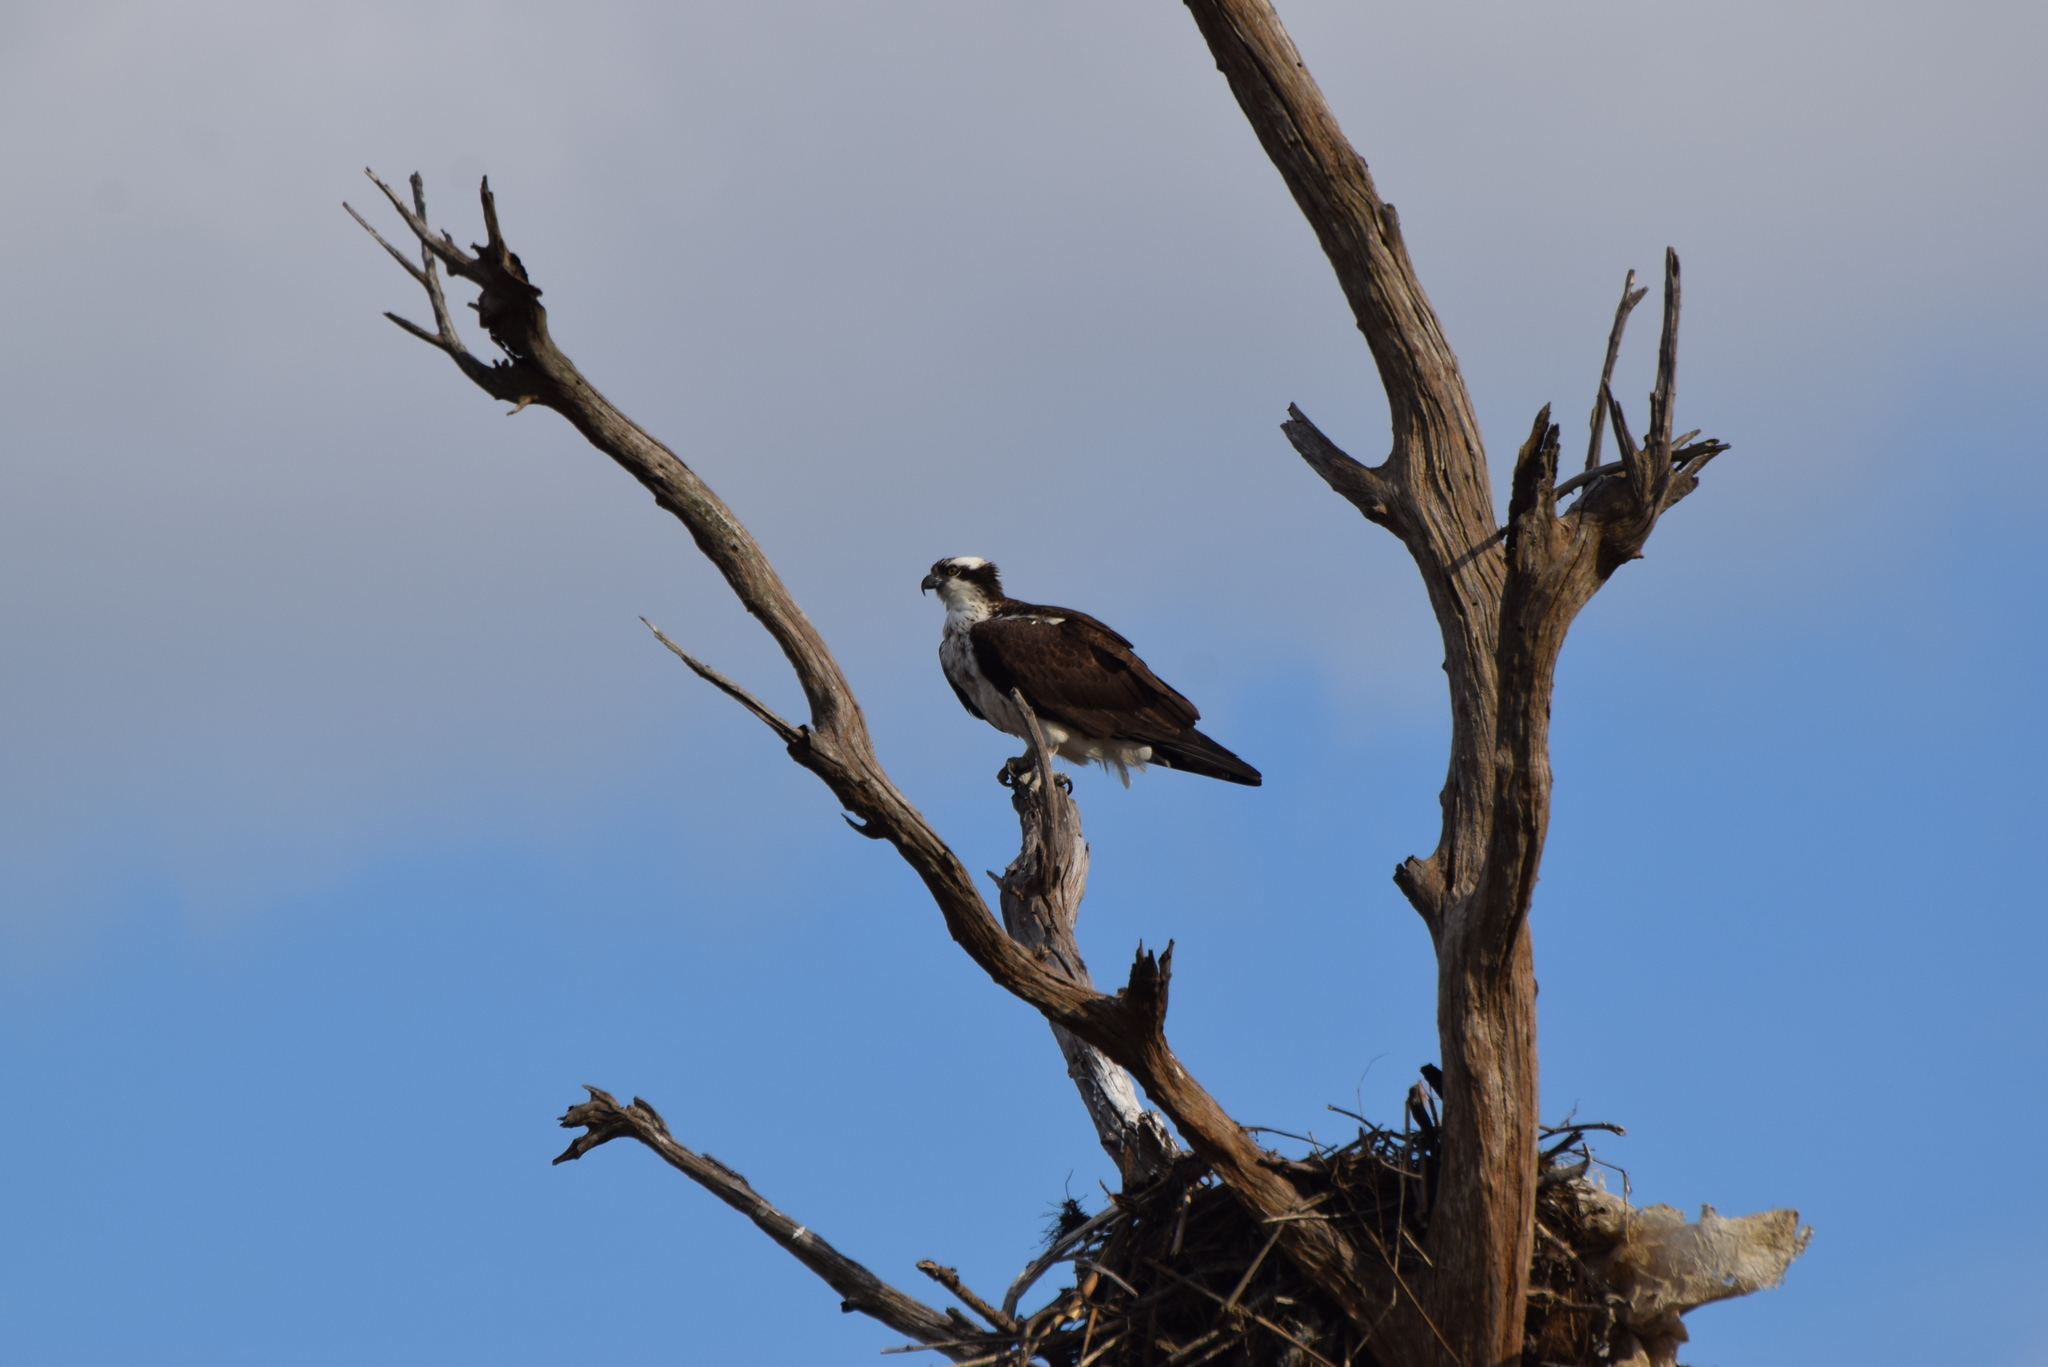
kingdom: Animalia
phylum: Chordata
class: Aves
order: Accipitriformes
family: Pandionidae
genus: Pandion
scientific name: Pandion haliaetus
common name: Osprey
